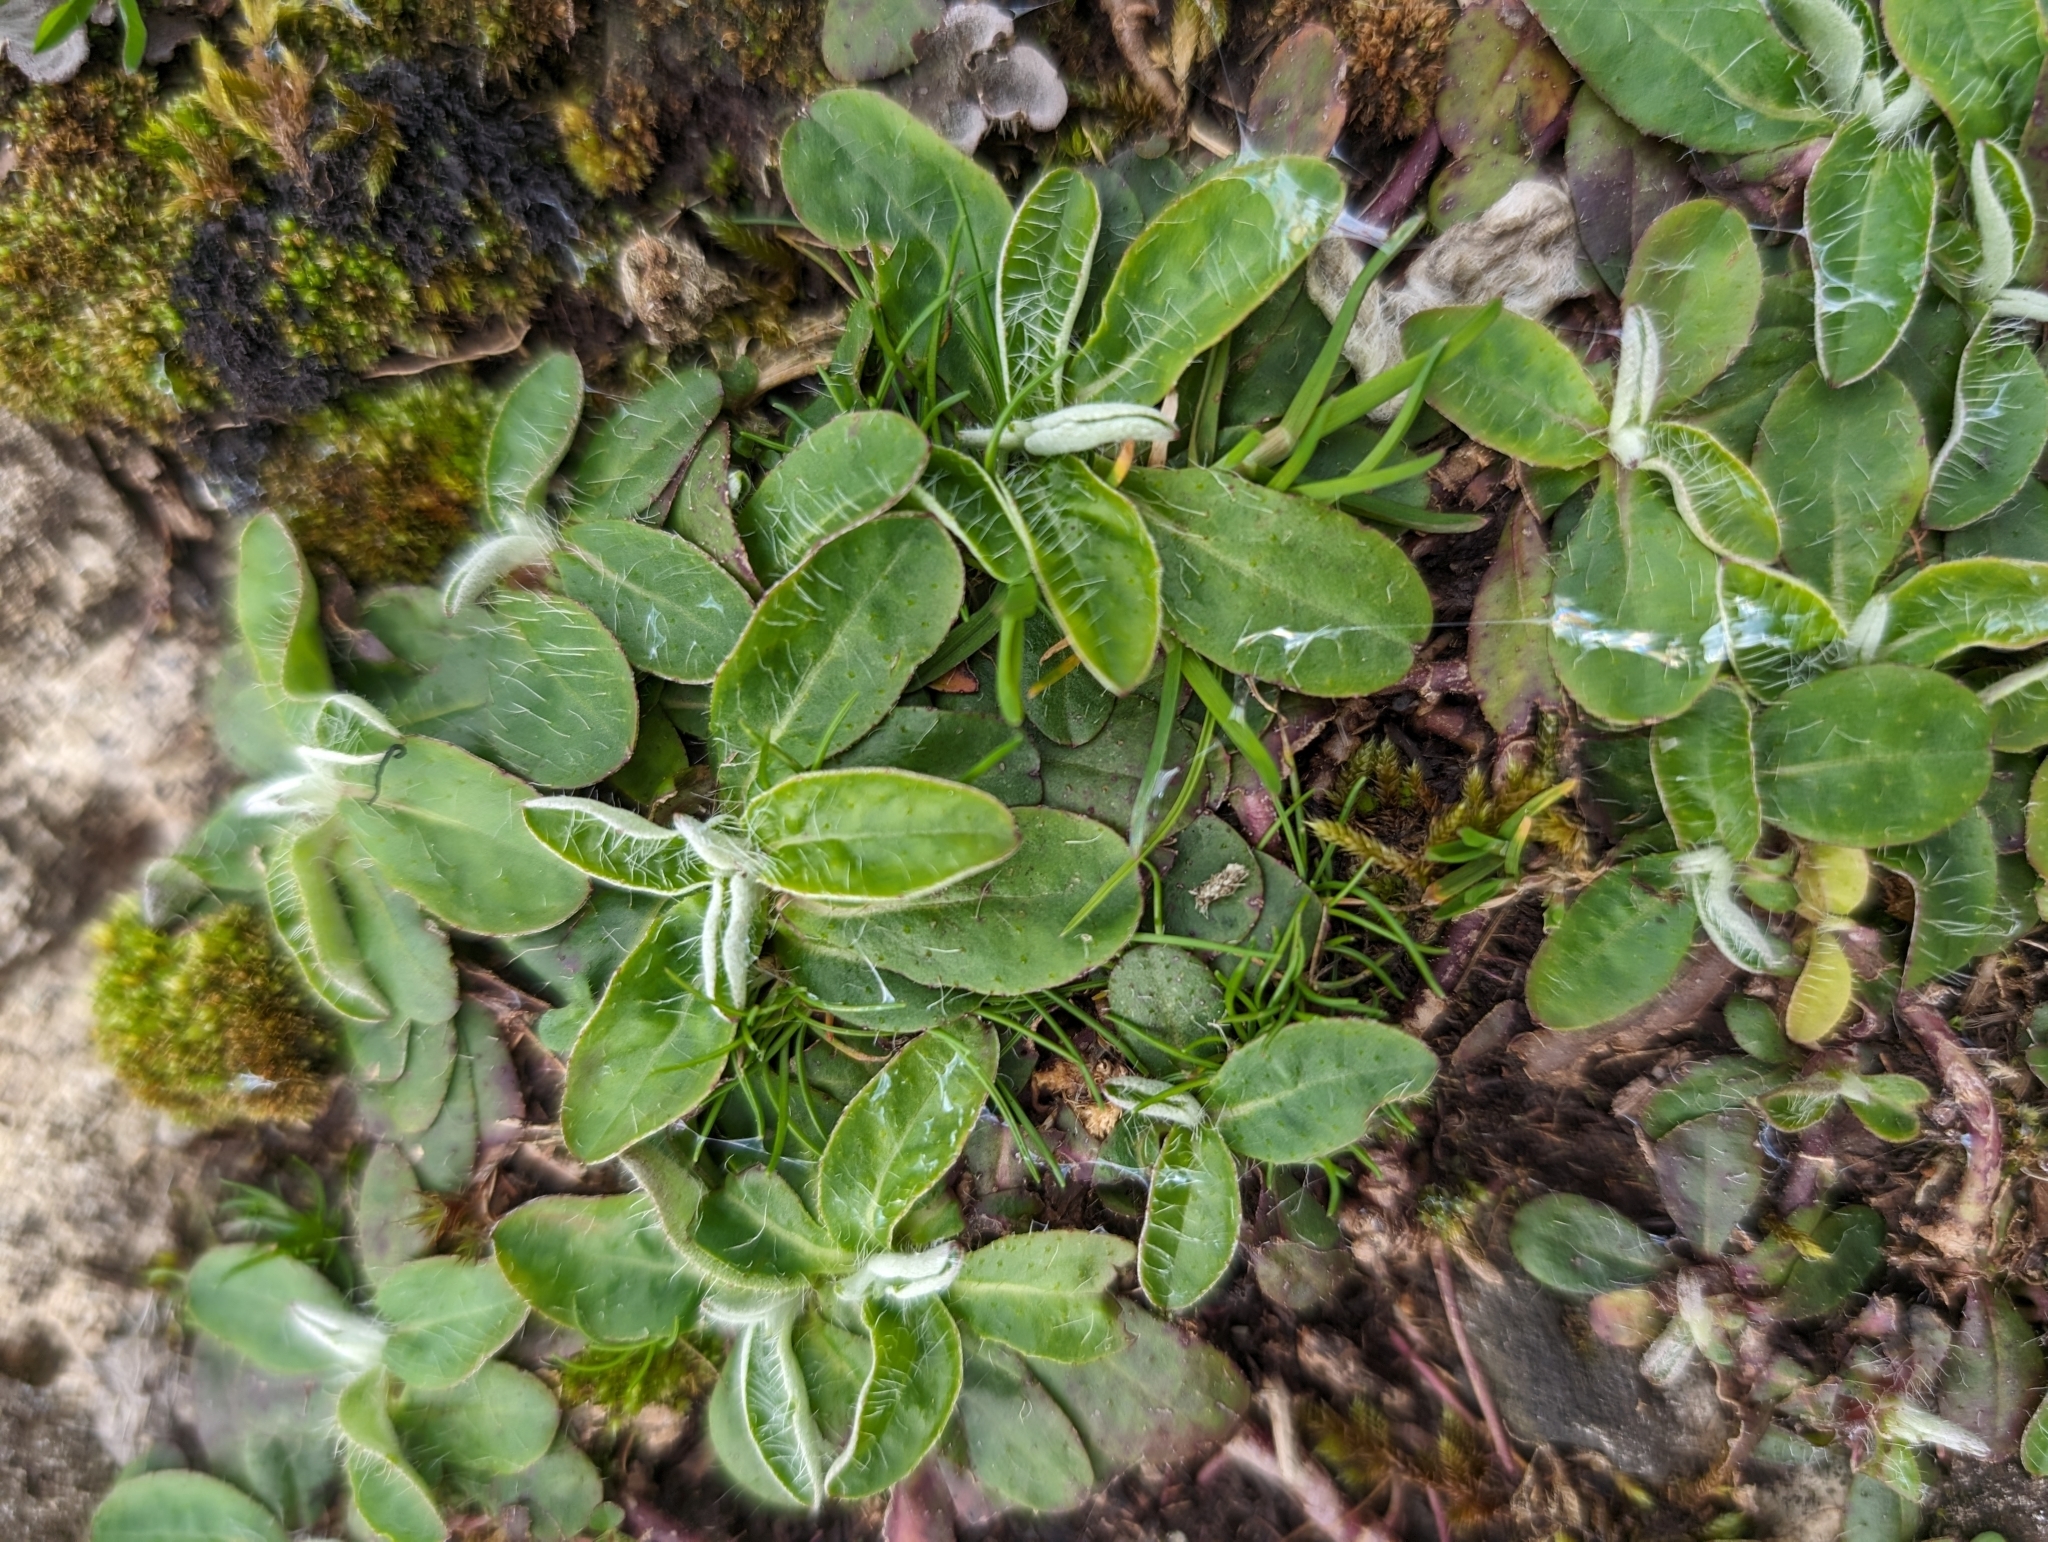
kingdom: Plantae
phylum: Tracheophyta
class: Magnoliopsida
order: Asterales
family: Asteraceae
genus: Pilosella
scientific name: Pilosella officinarum
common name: Mouse-ear hawkweed
